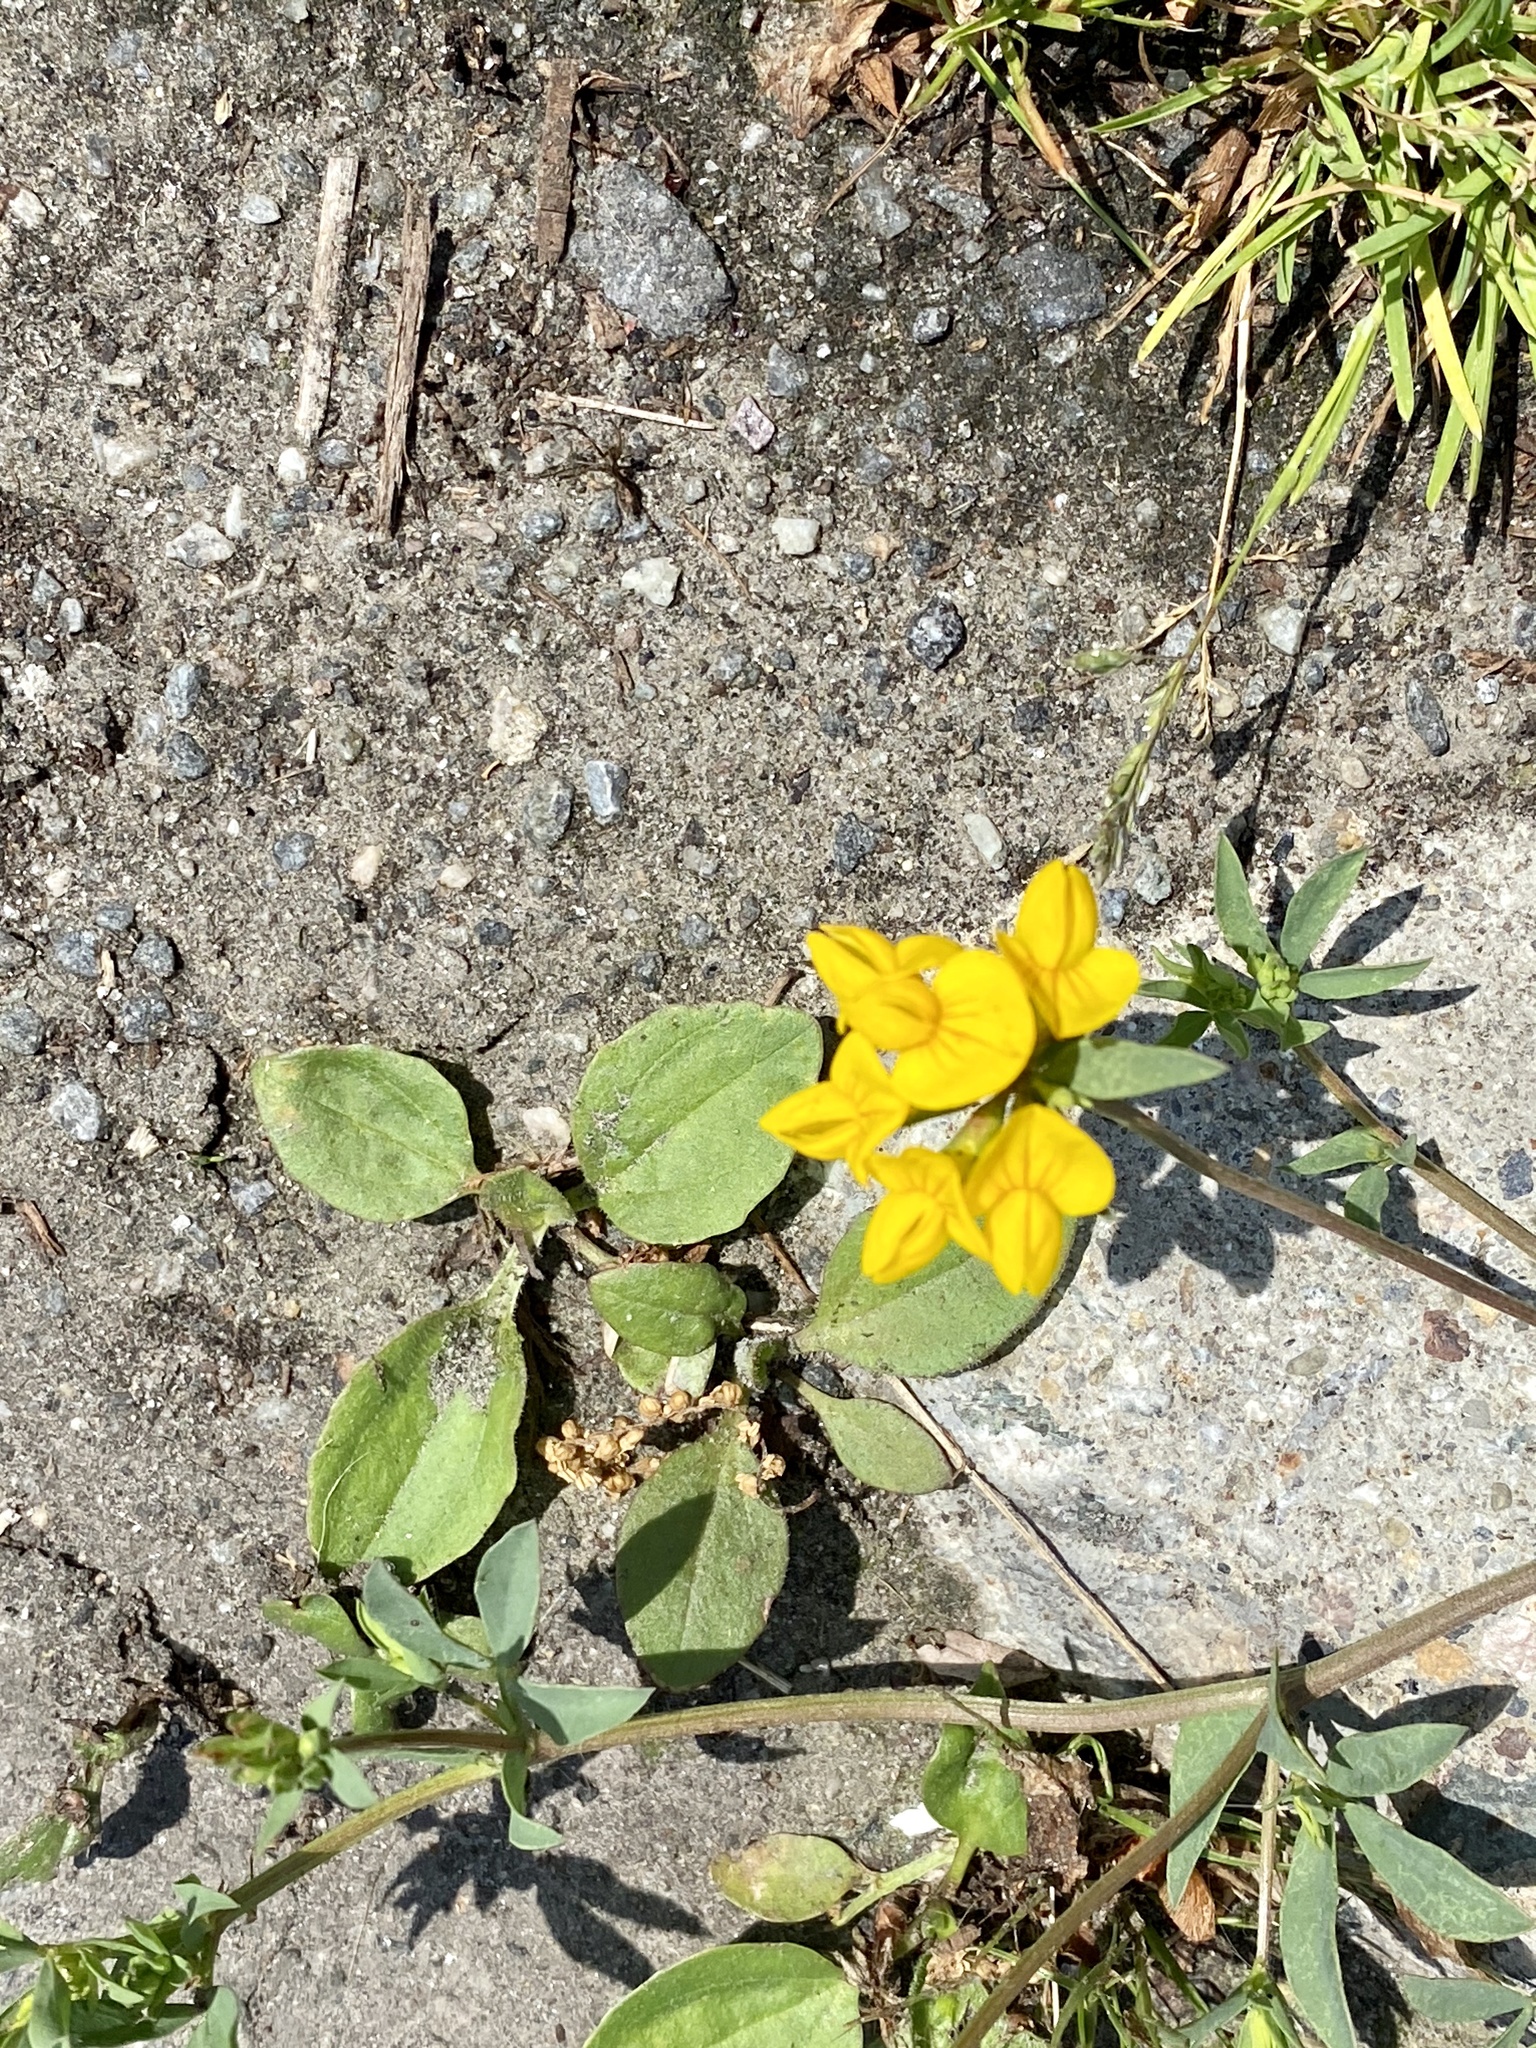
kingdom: Plantae
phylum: Tracheophyta
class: Magnoliopsida
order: Fabales
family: Fabaceae
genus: Lotus
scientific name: Lotus corniculatus
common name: Common bird's-foot-trefoil
